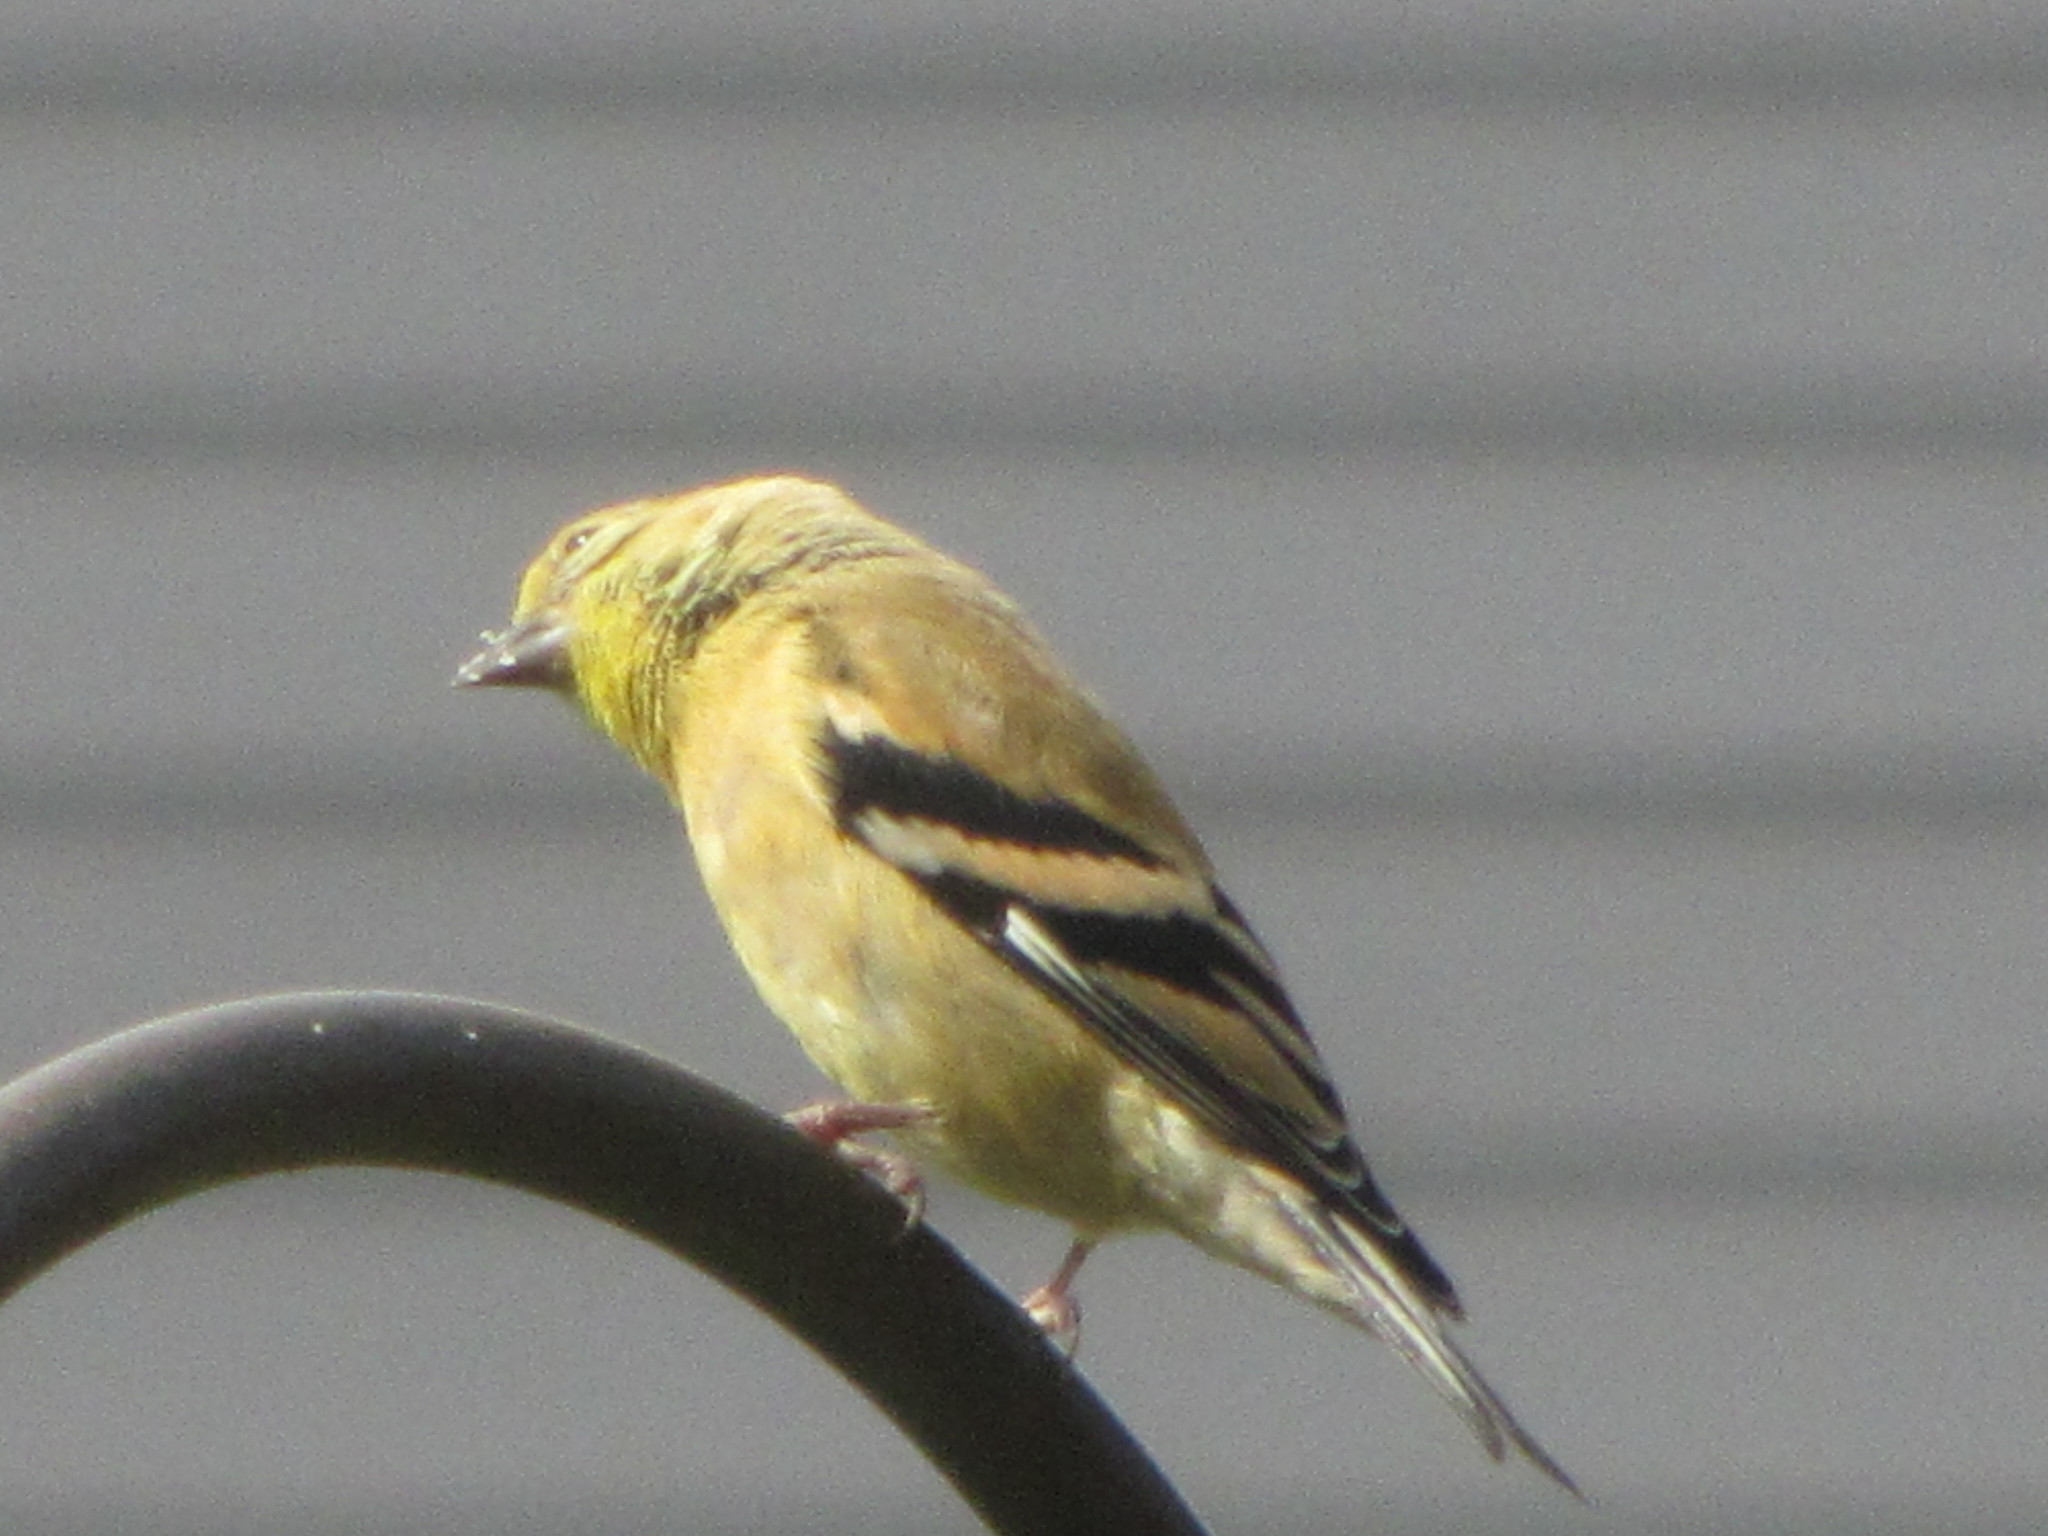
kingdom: Animalia
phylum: Chordata
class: Aves
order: Passeriformes
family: Fringillidae
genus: Spinus
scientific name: Spinus tristis
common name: American goldfinch
